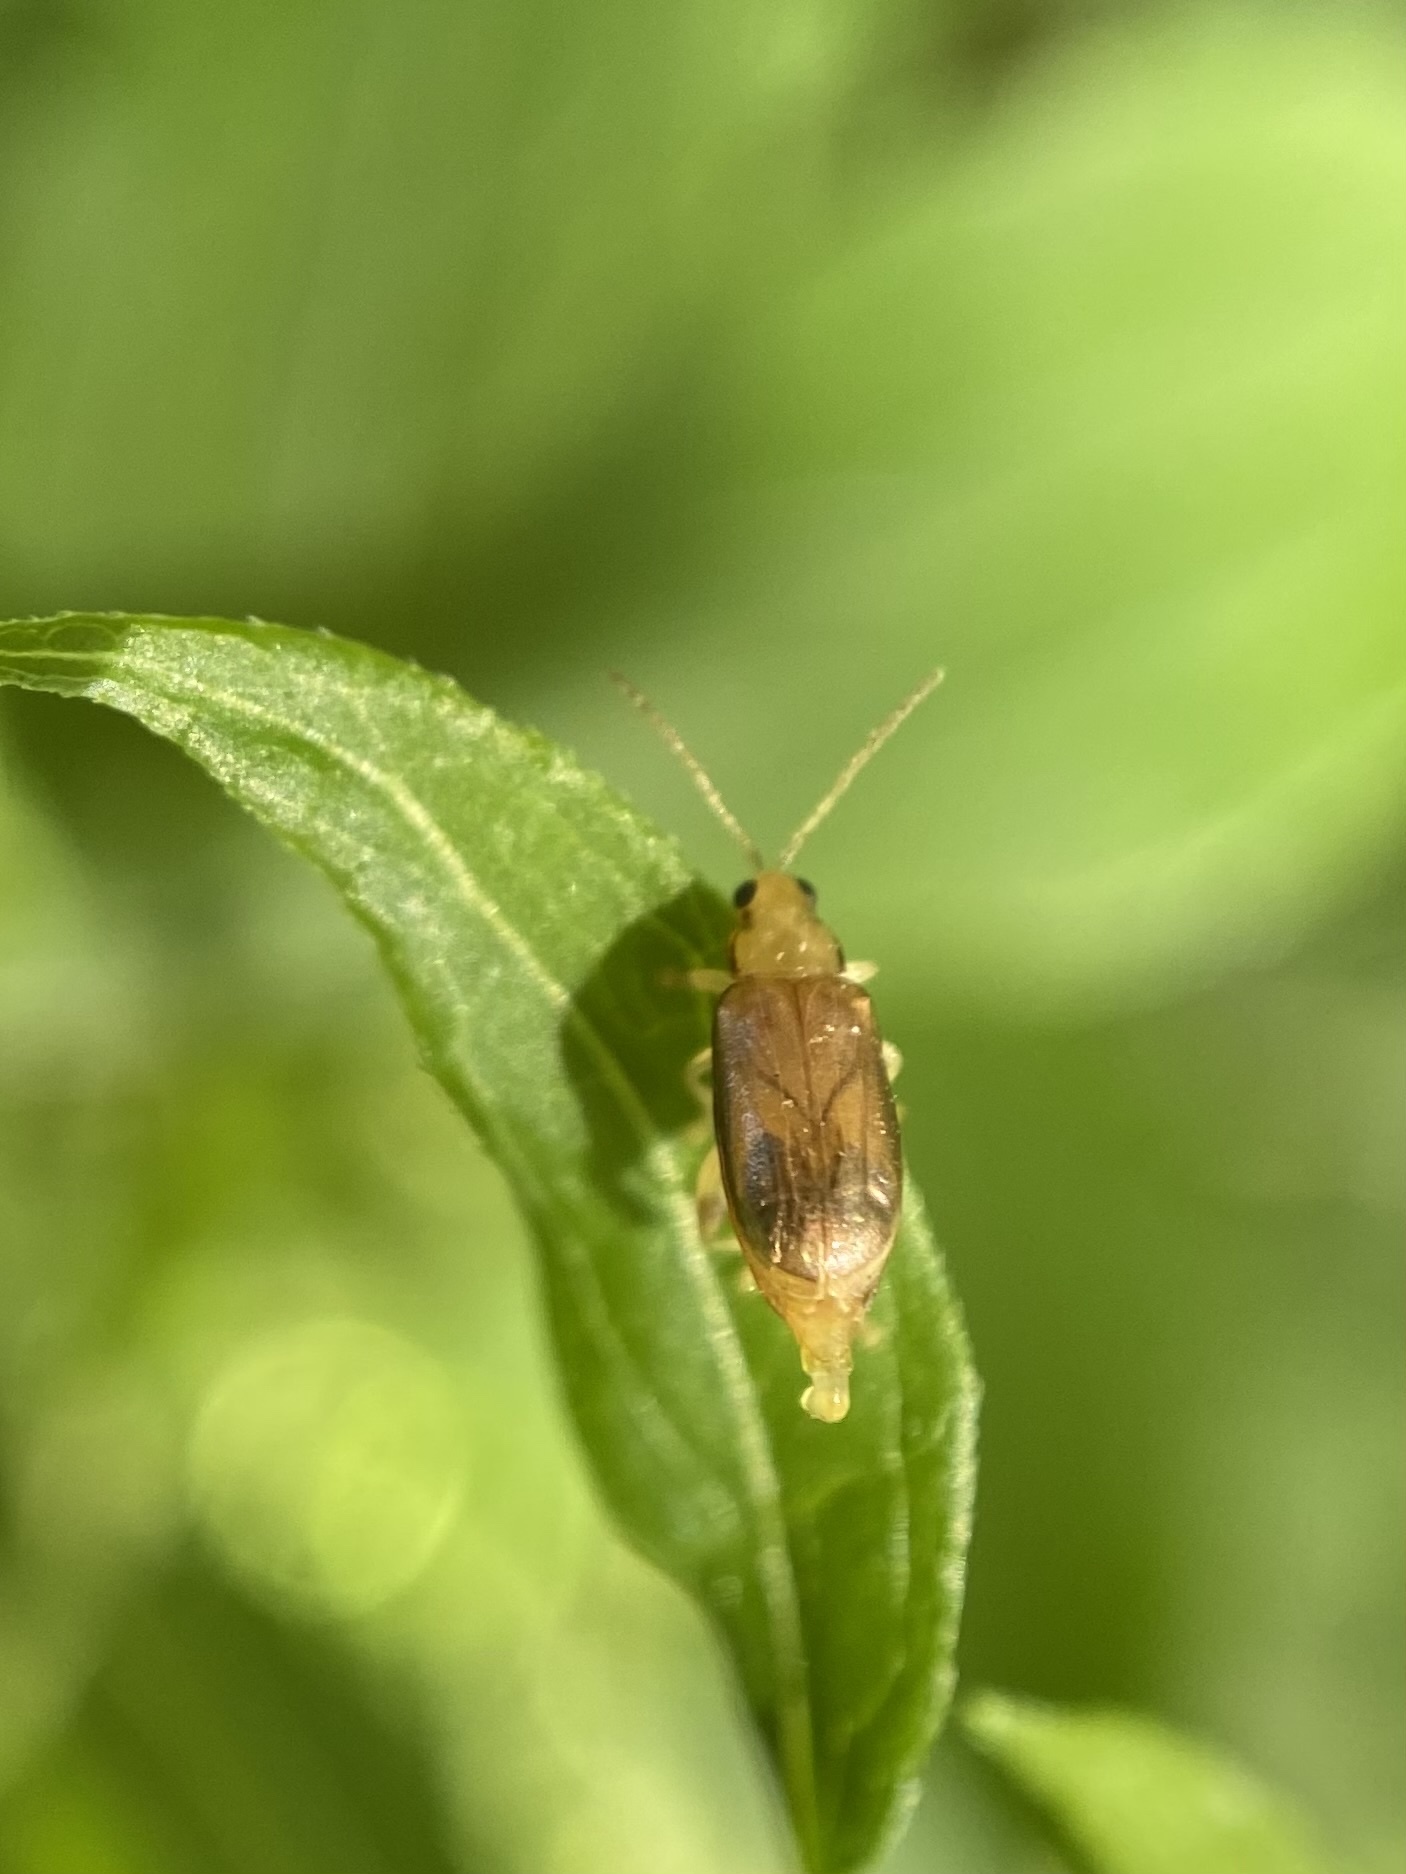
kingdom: Animalia
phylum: Arthropoda
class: Insecta
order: Coleoptera
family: Chrysomelidae
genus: Systena
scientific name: Systena marginalis
